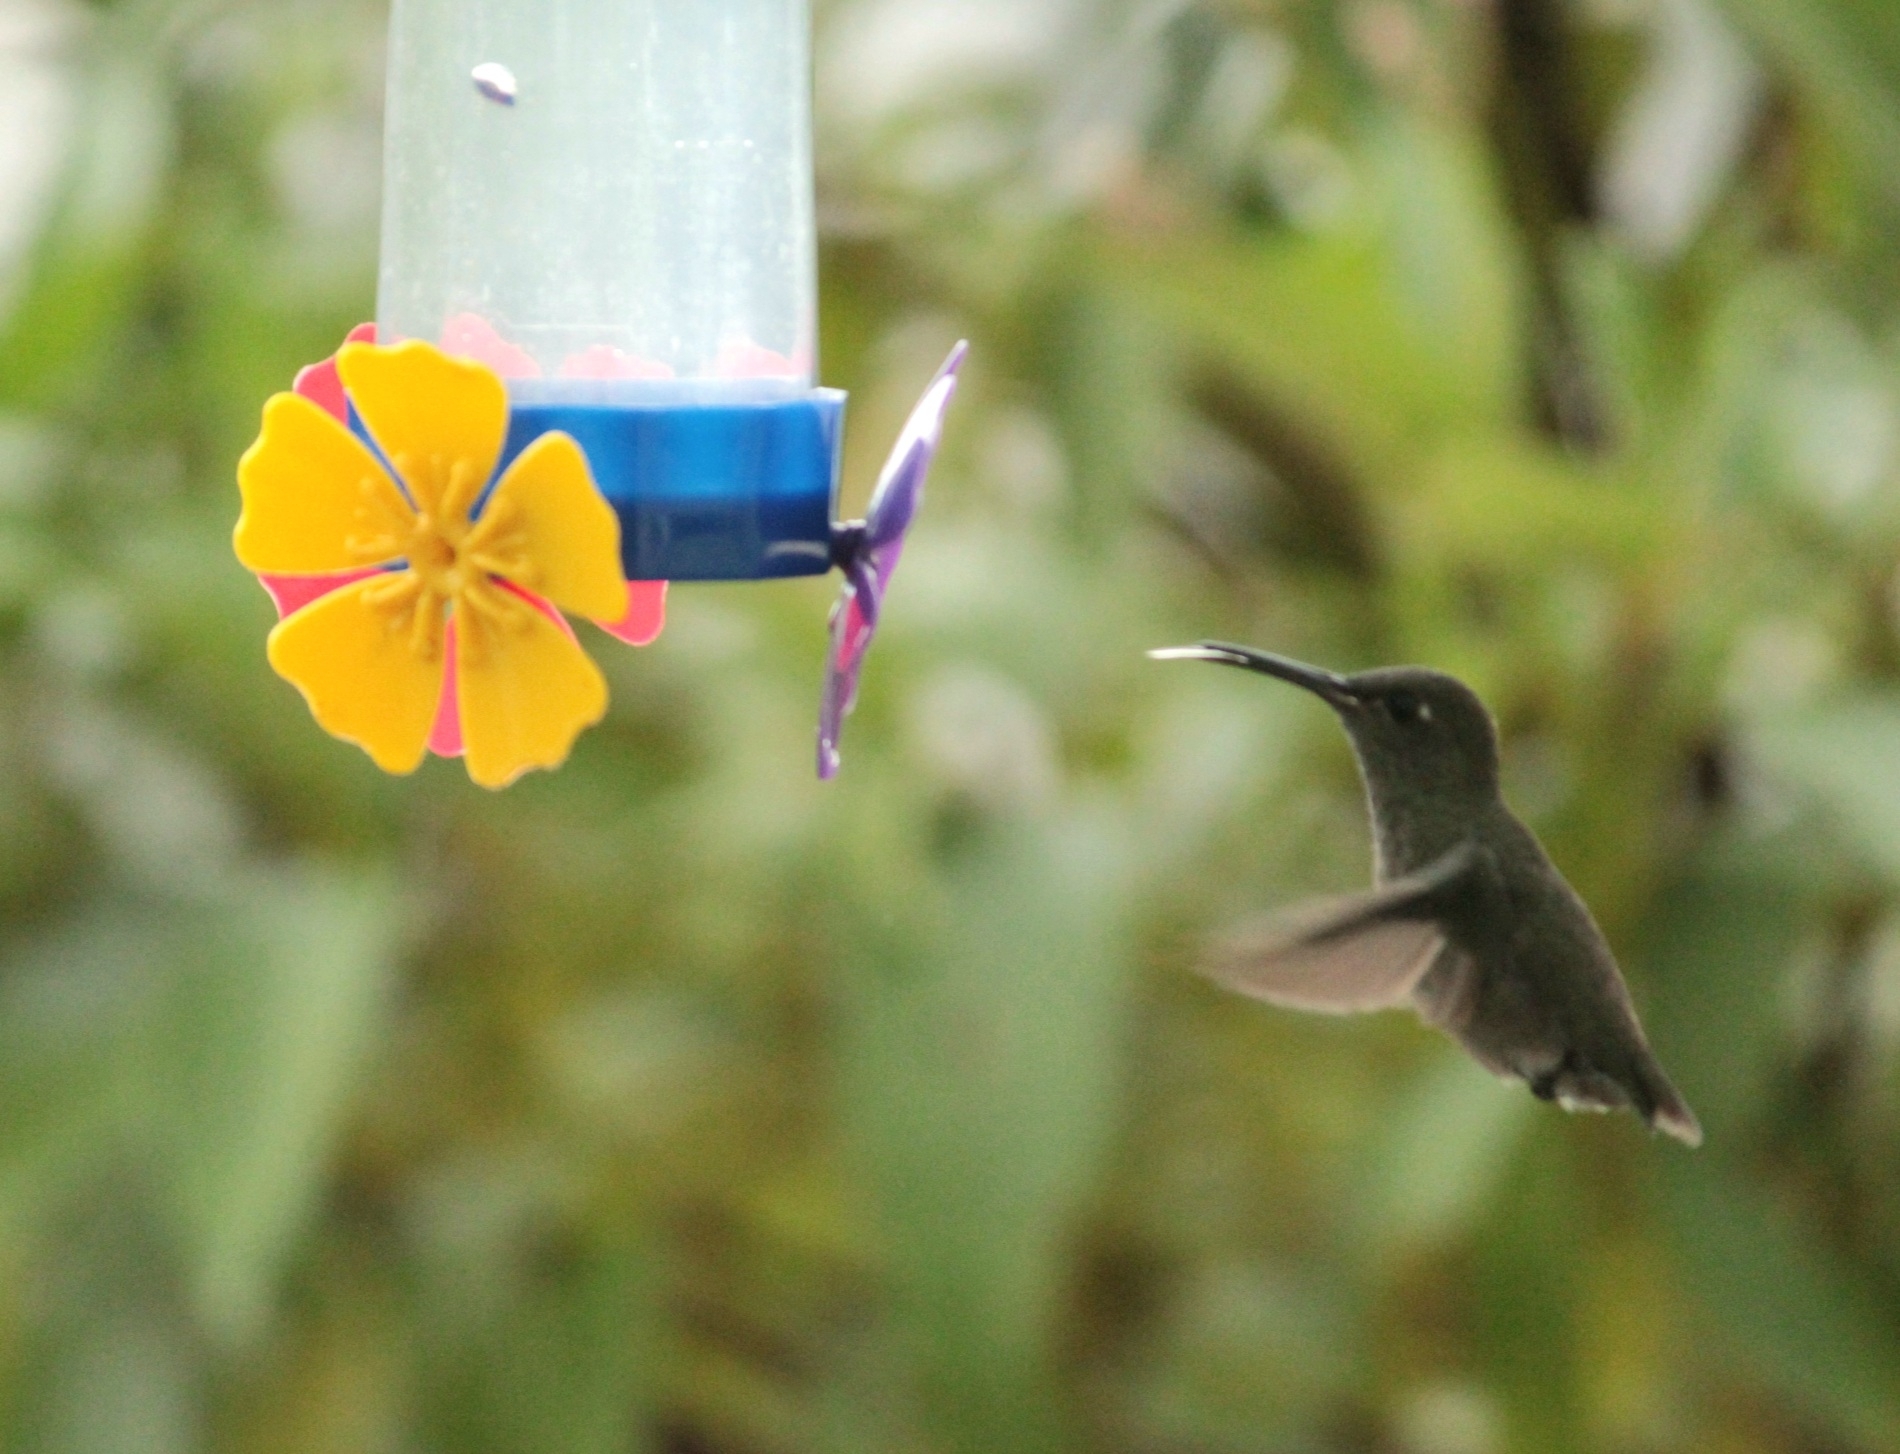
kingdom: Animalia
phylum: Chordata
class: Aves
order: Apodiformes
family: Trochilidae
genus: Eupetomena
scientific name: Eupetomena cirrochloris
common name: Sombre hummingbird
